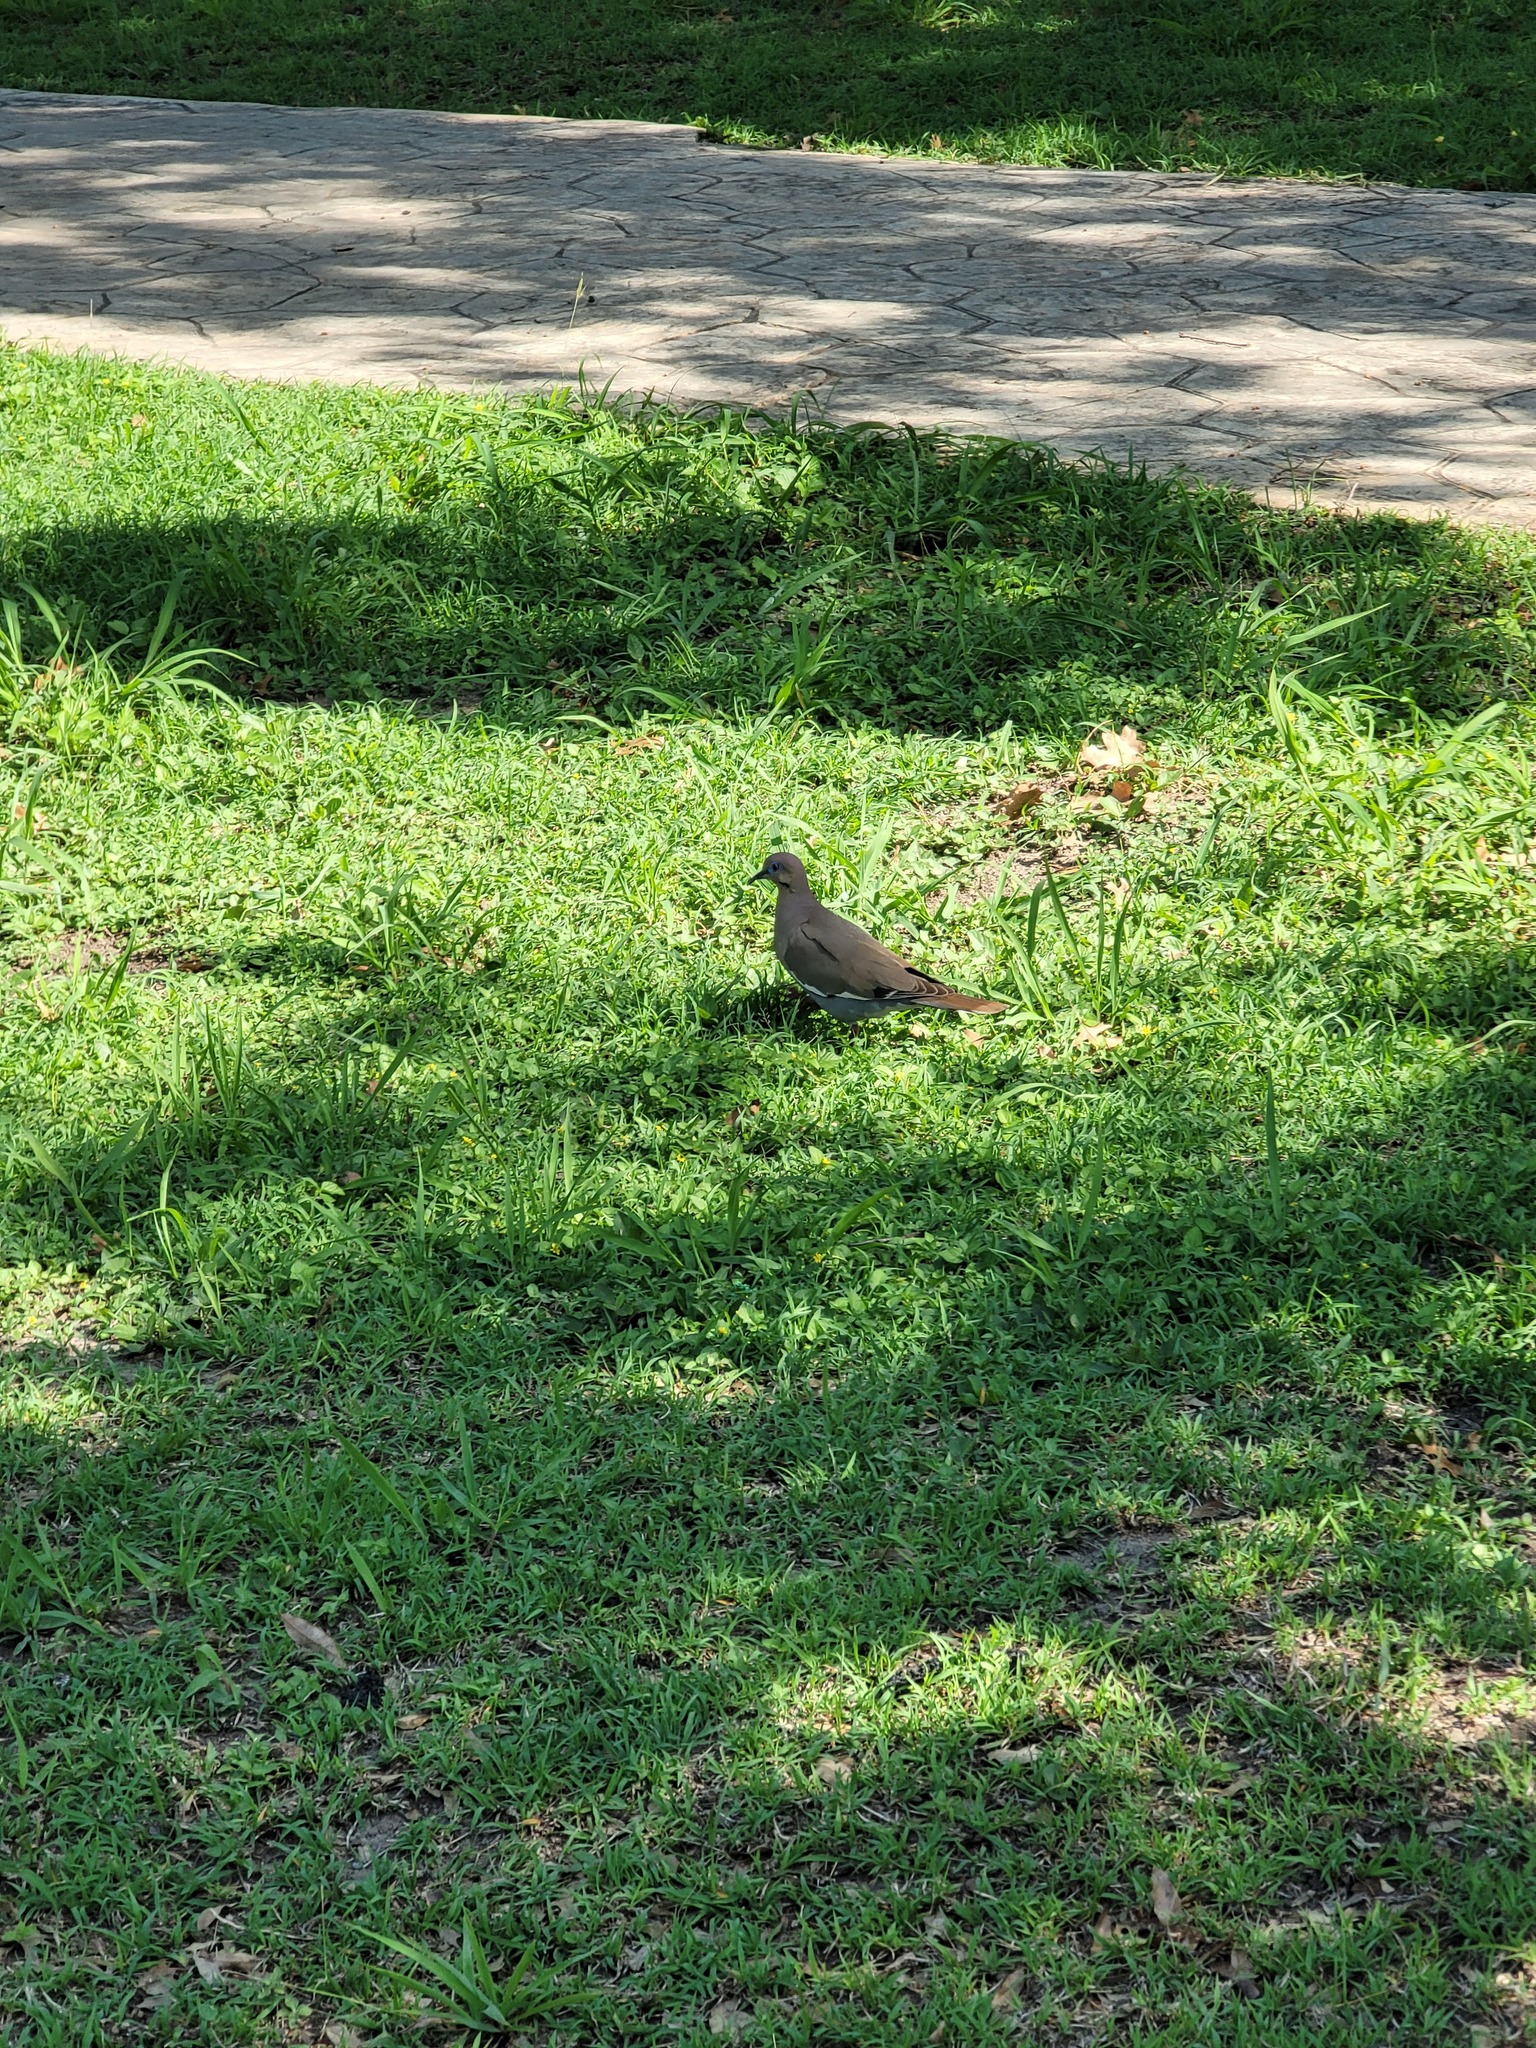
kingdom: Animalia
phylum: Chordata
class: Aves
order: Columbiformes
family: Columbidae
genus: Zenaida
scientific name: Zenaida asiatica
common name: White-winged dove
